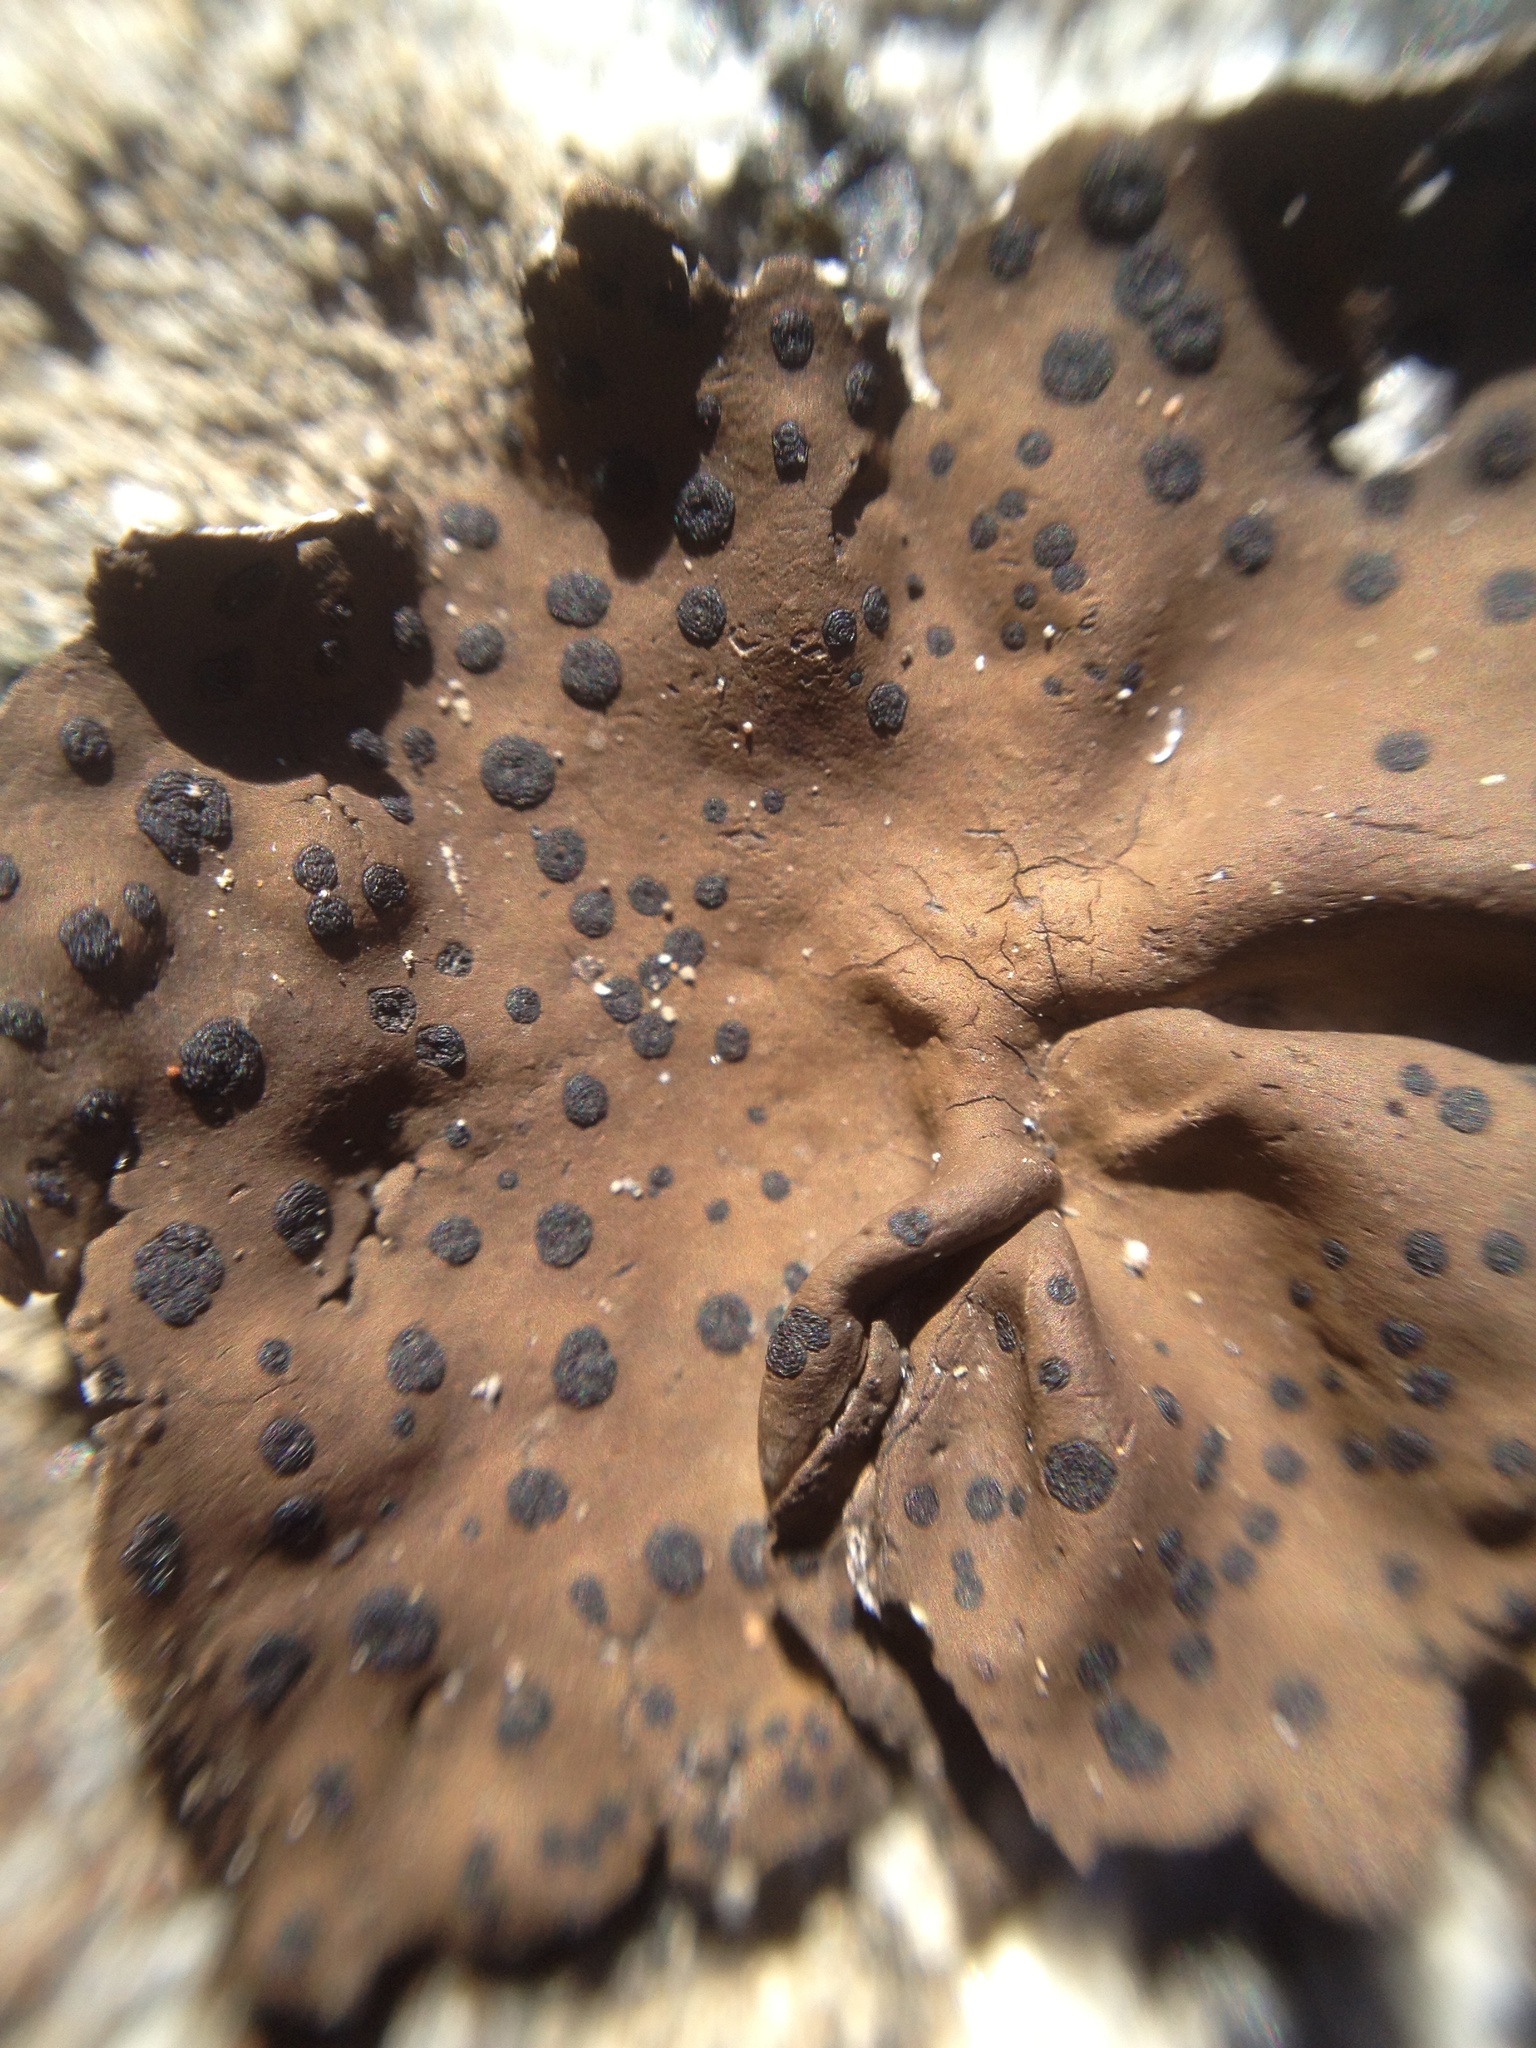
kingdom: Fungi
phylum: Ascomycota
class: Lecanoromycetes
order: Umbilicariales
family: Umbilicariaceae
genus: Umbilicaria
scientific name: Umbilicaria phaea
